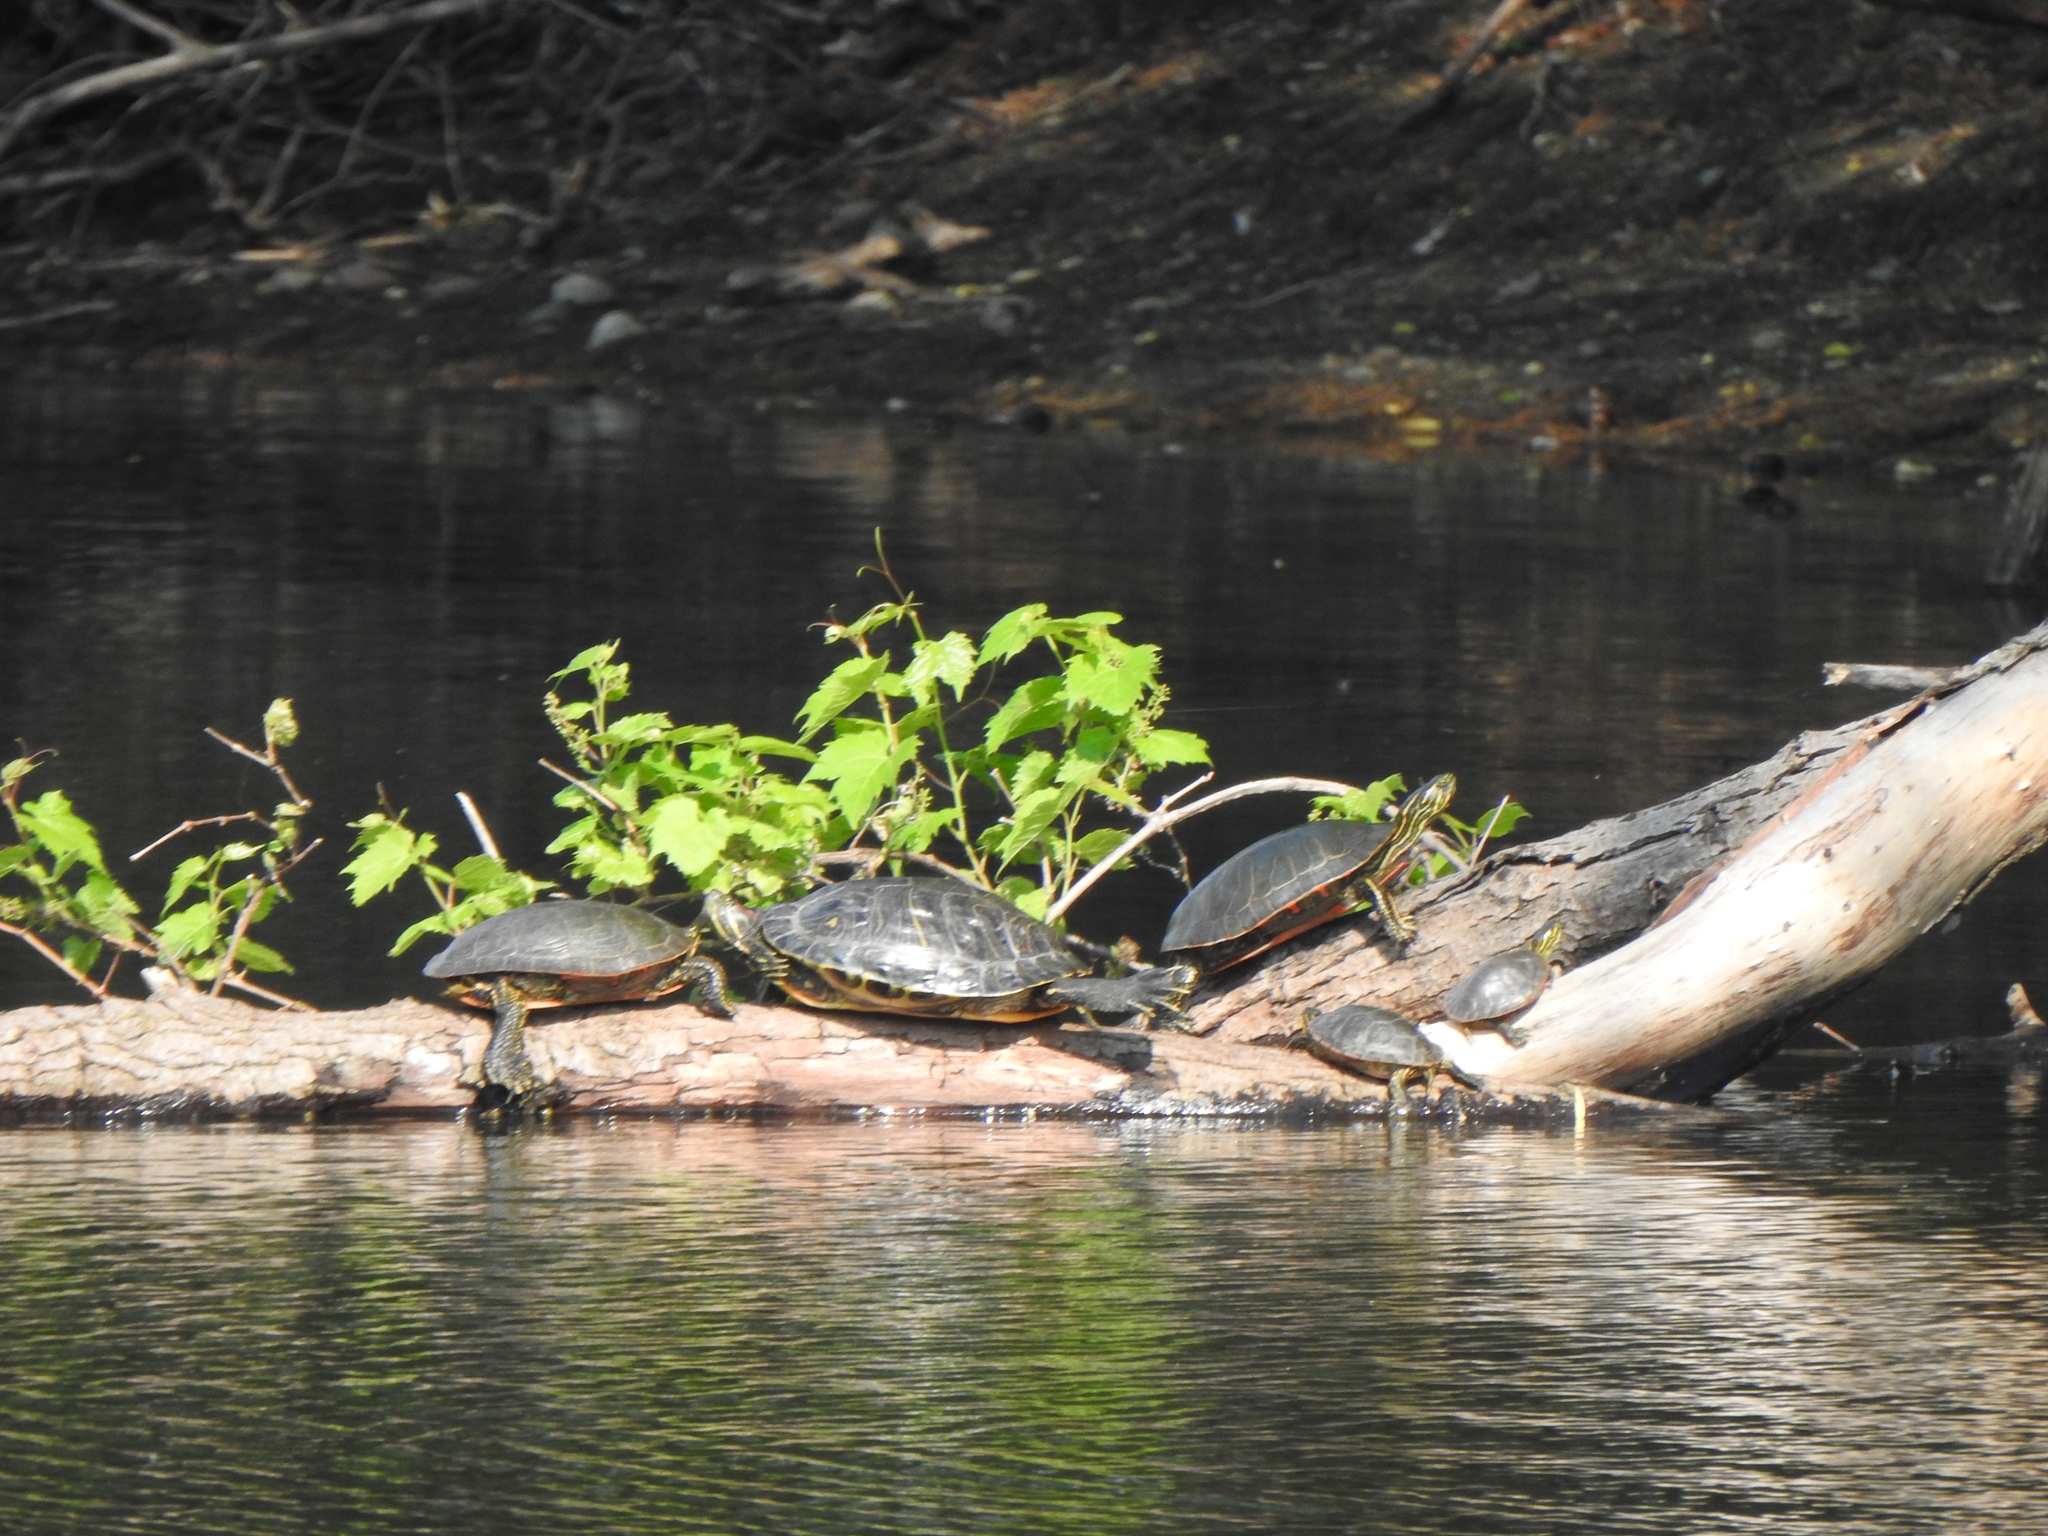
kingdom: Animalia
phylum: Chordata
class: Testudines
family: Emydidae
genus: Trachemys
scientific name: Trachemys scripta
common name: Slider
